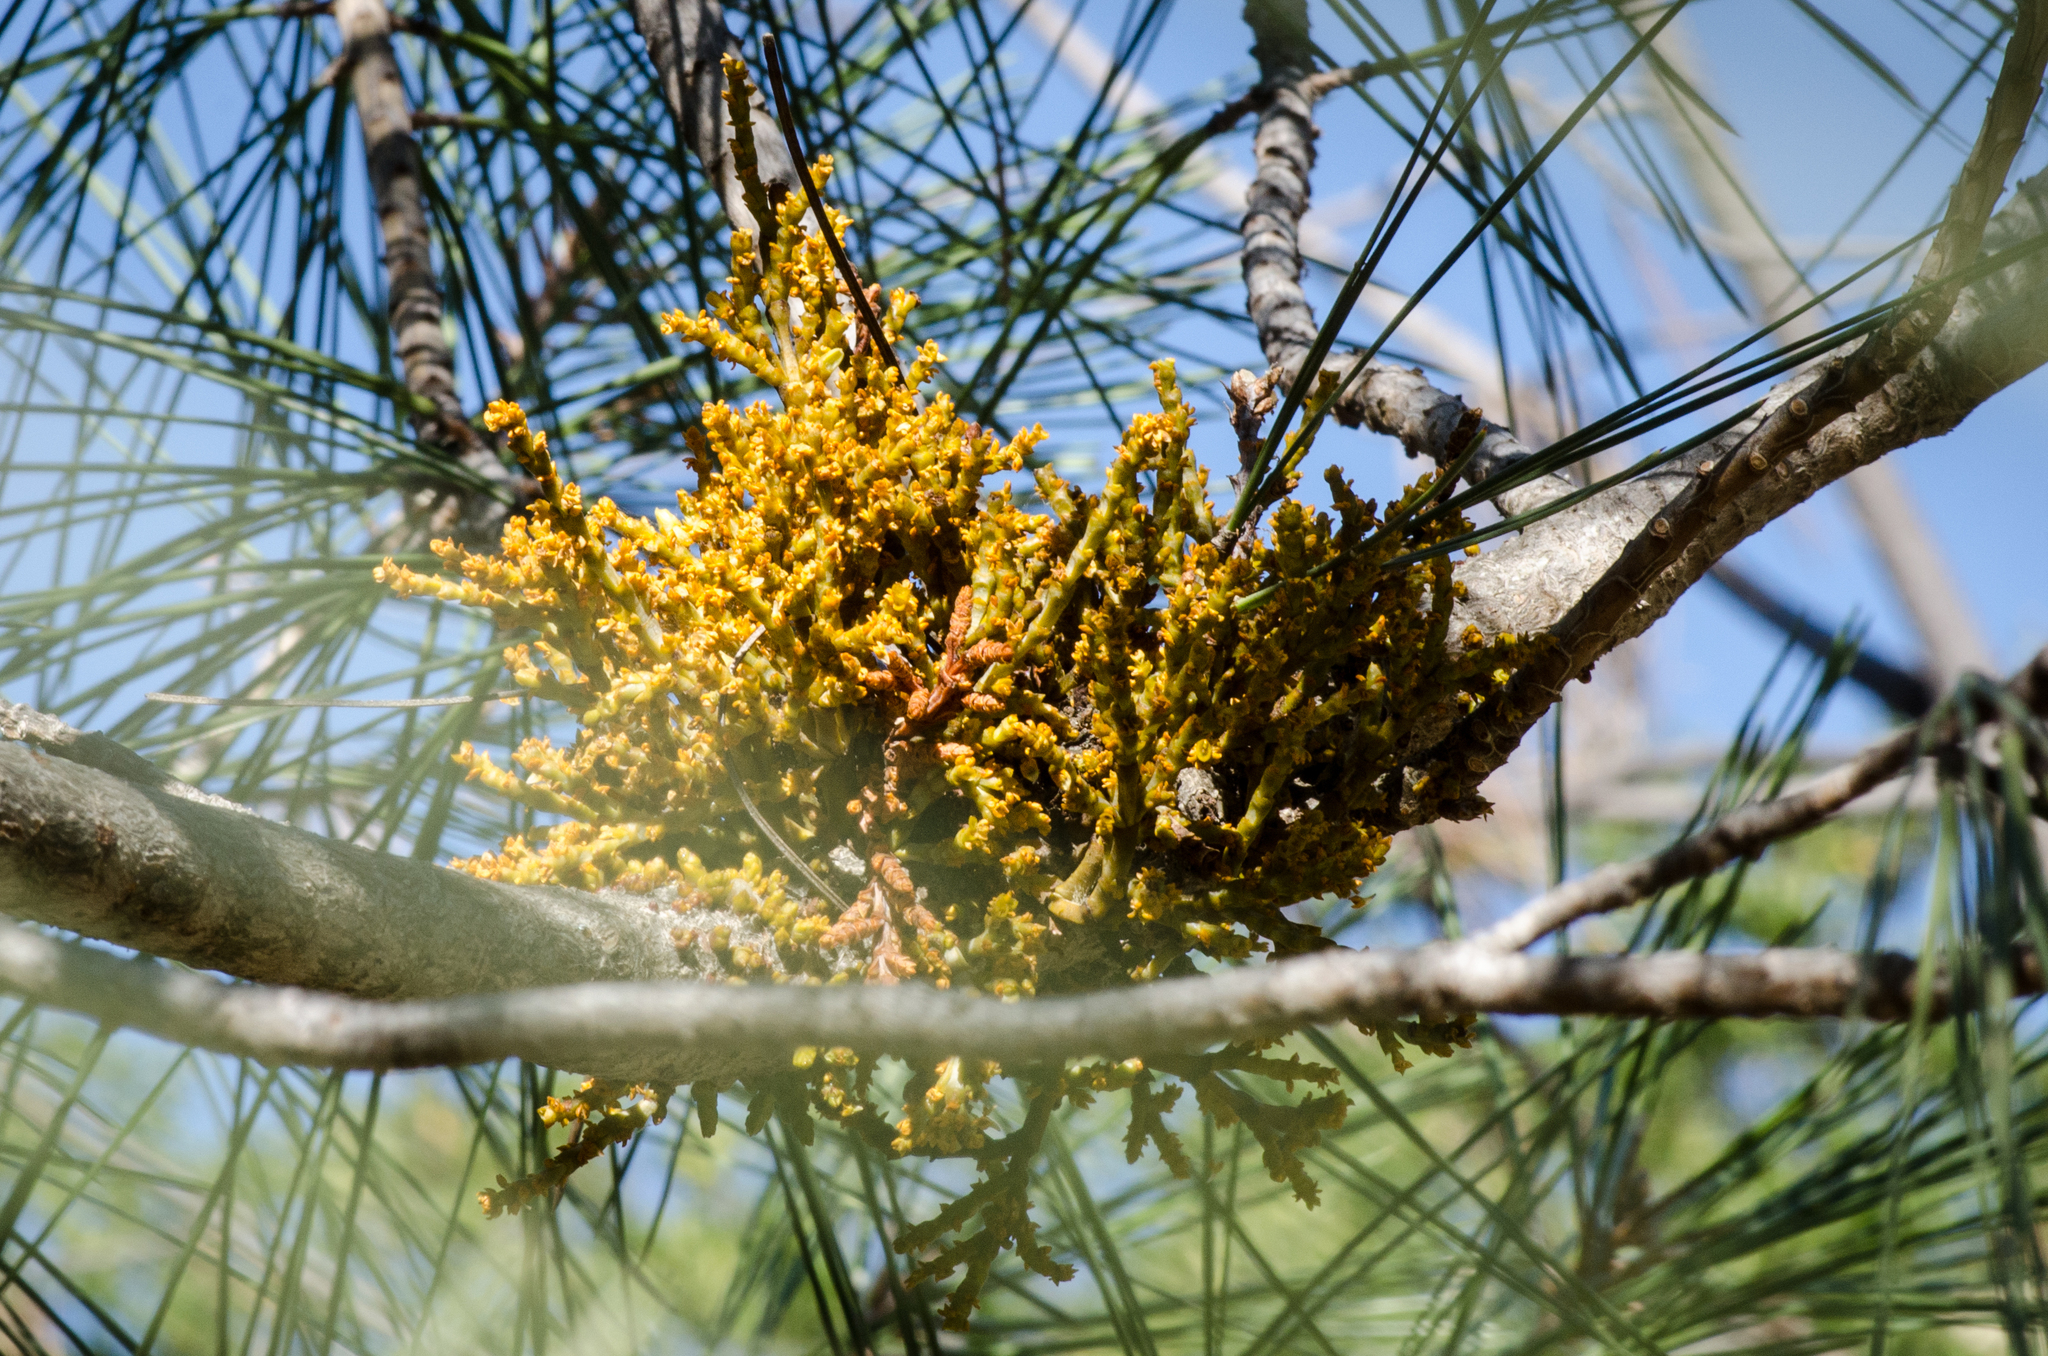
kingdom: Plantae
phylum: Tracheophyta
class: Magnoliopsida
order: Santalales
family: Viscaceae
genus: Arceuthobium
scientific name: Arceuthobium campylopodum
